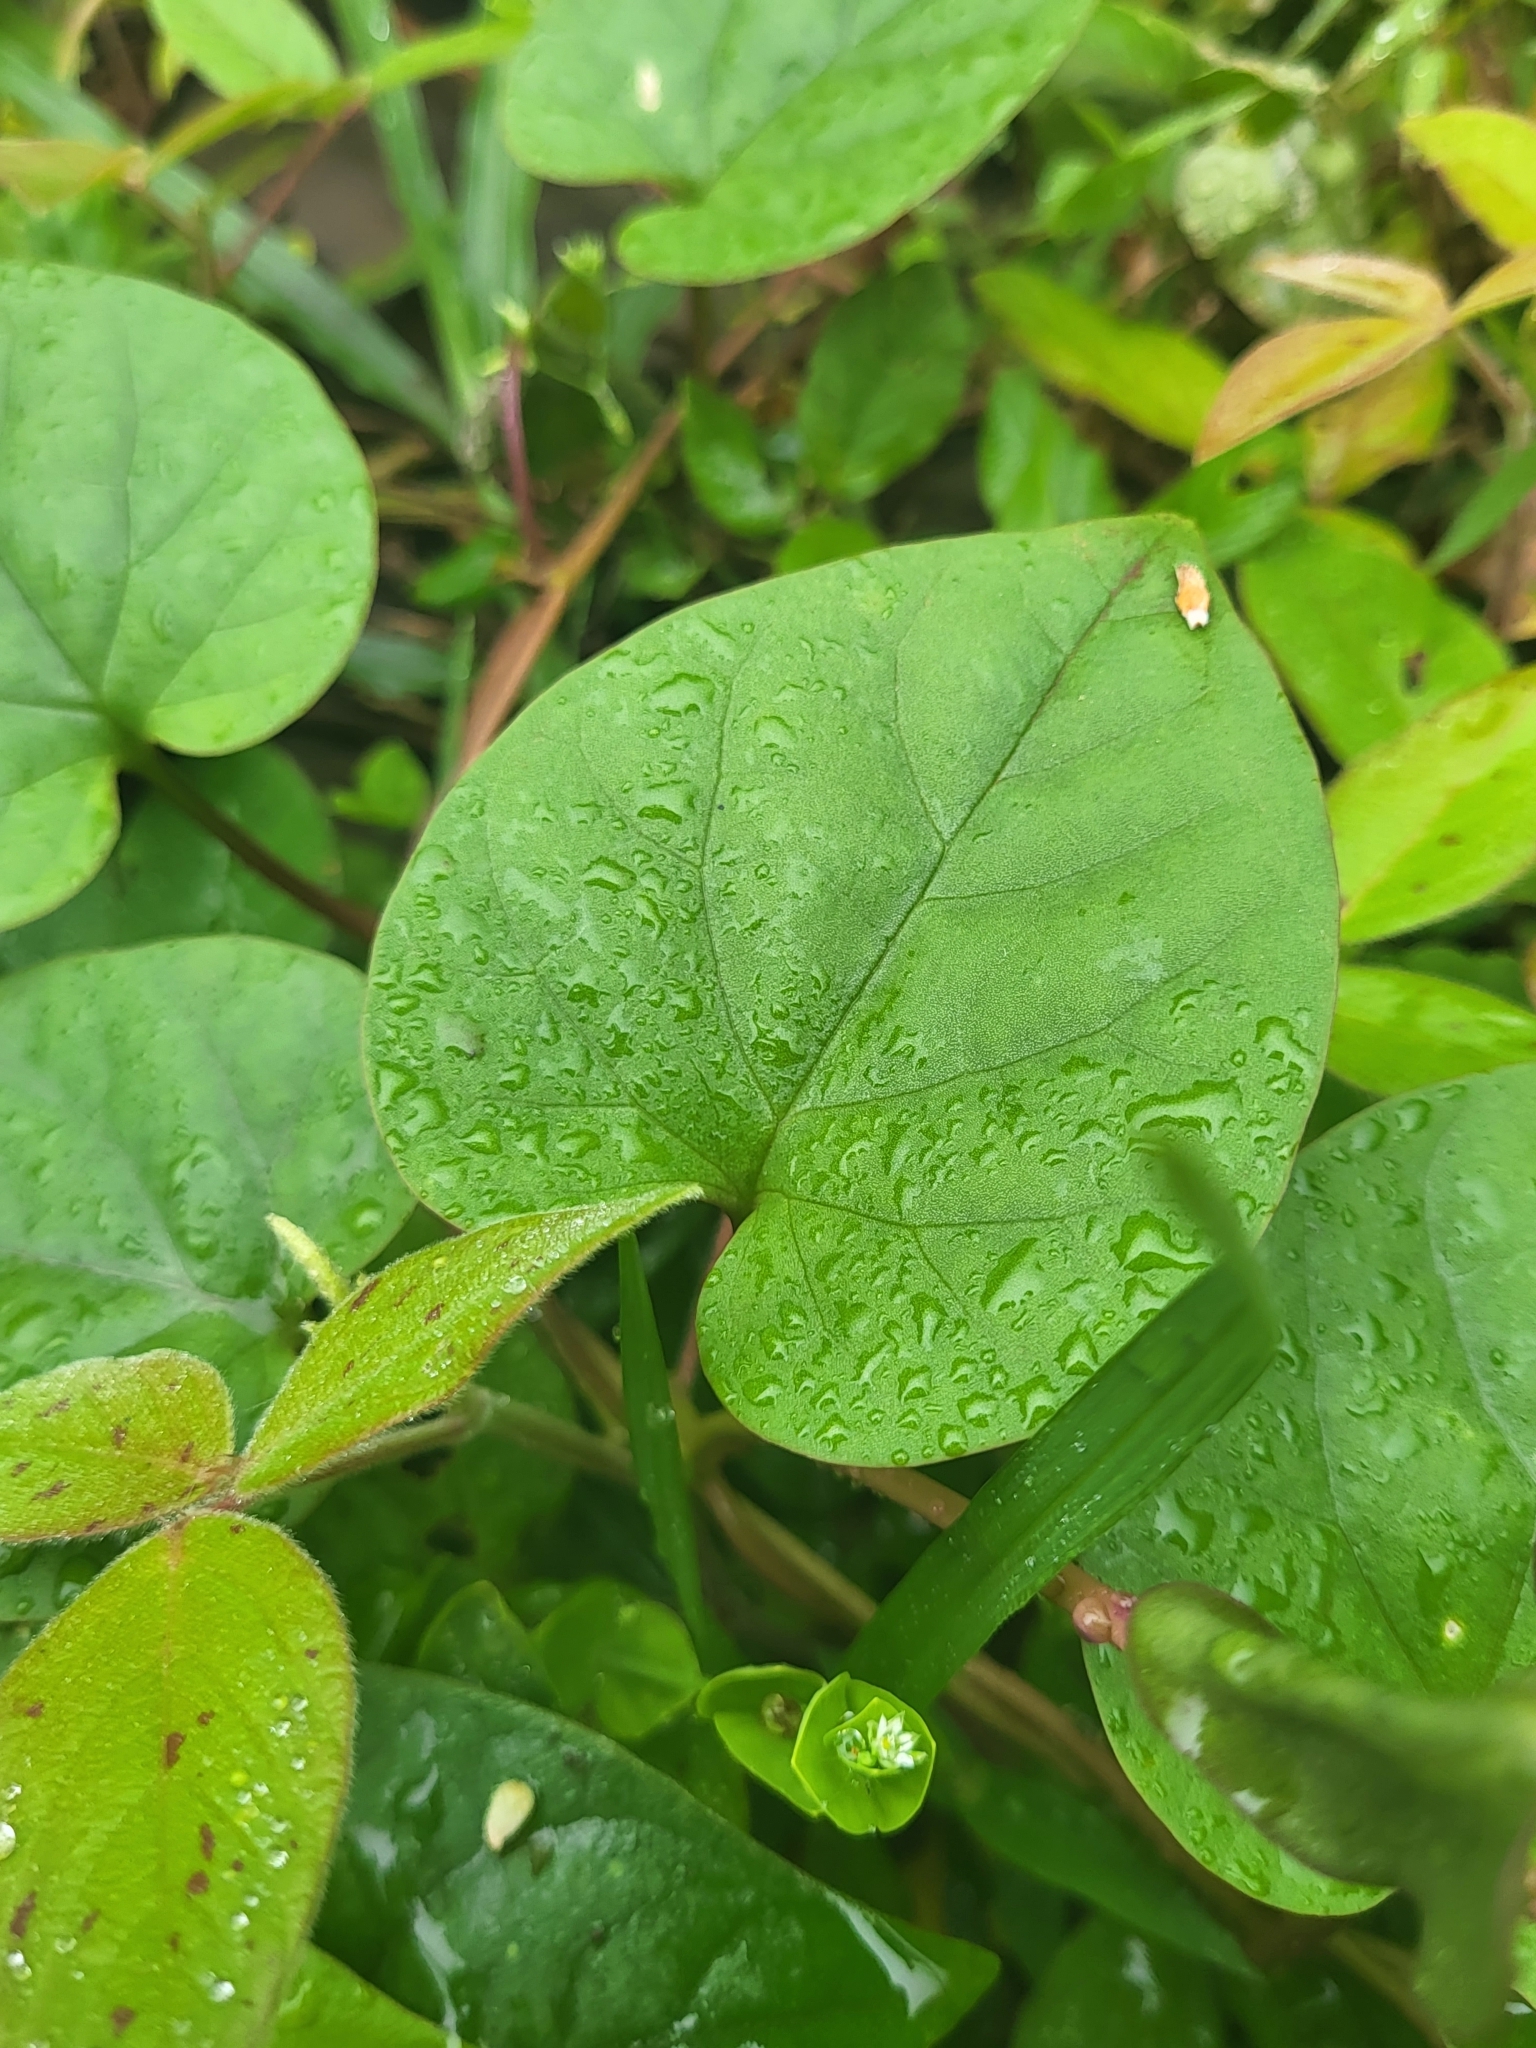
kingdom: Plantae
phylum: Tracheophyta
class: Magnoliopsida
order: Caryophyllales
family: Basellaceae
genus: Basella
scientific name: Basella alba
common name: Indian spinach
